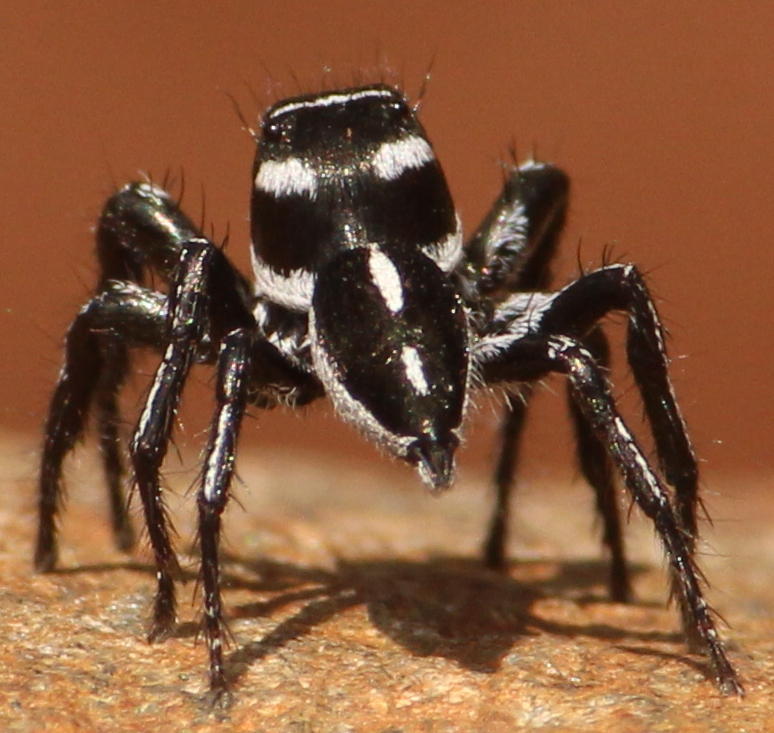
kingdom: Animalia
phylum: Arthropoda
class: Arachnida
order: Araneae
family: Salticidae
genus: Hyllus
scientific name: Hyllus argyrotoxus
